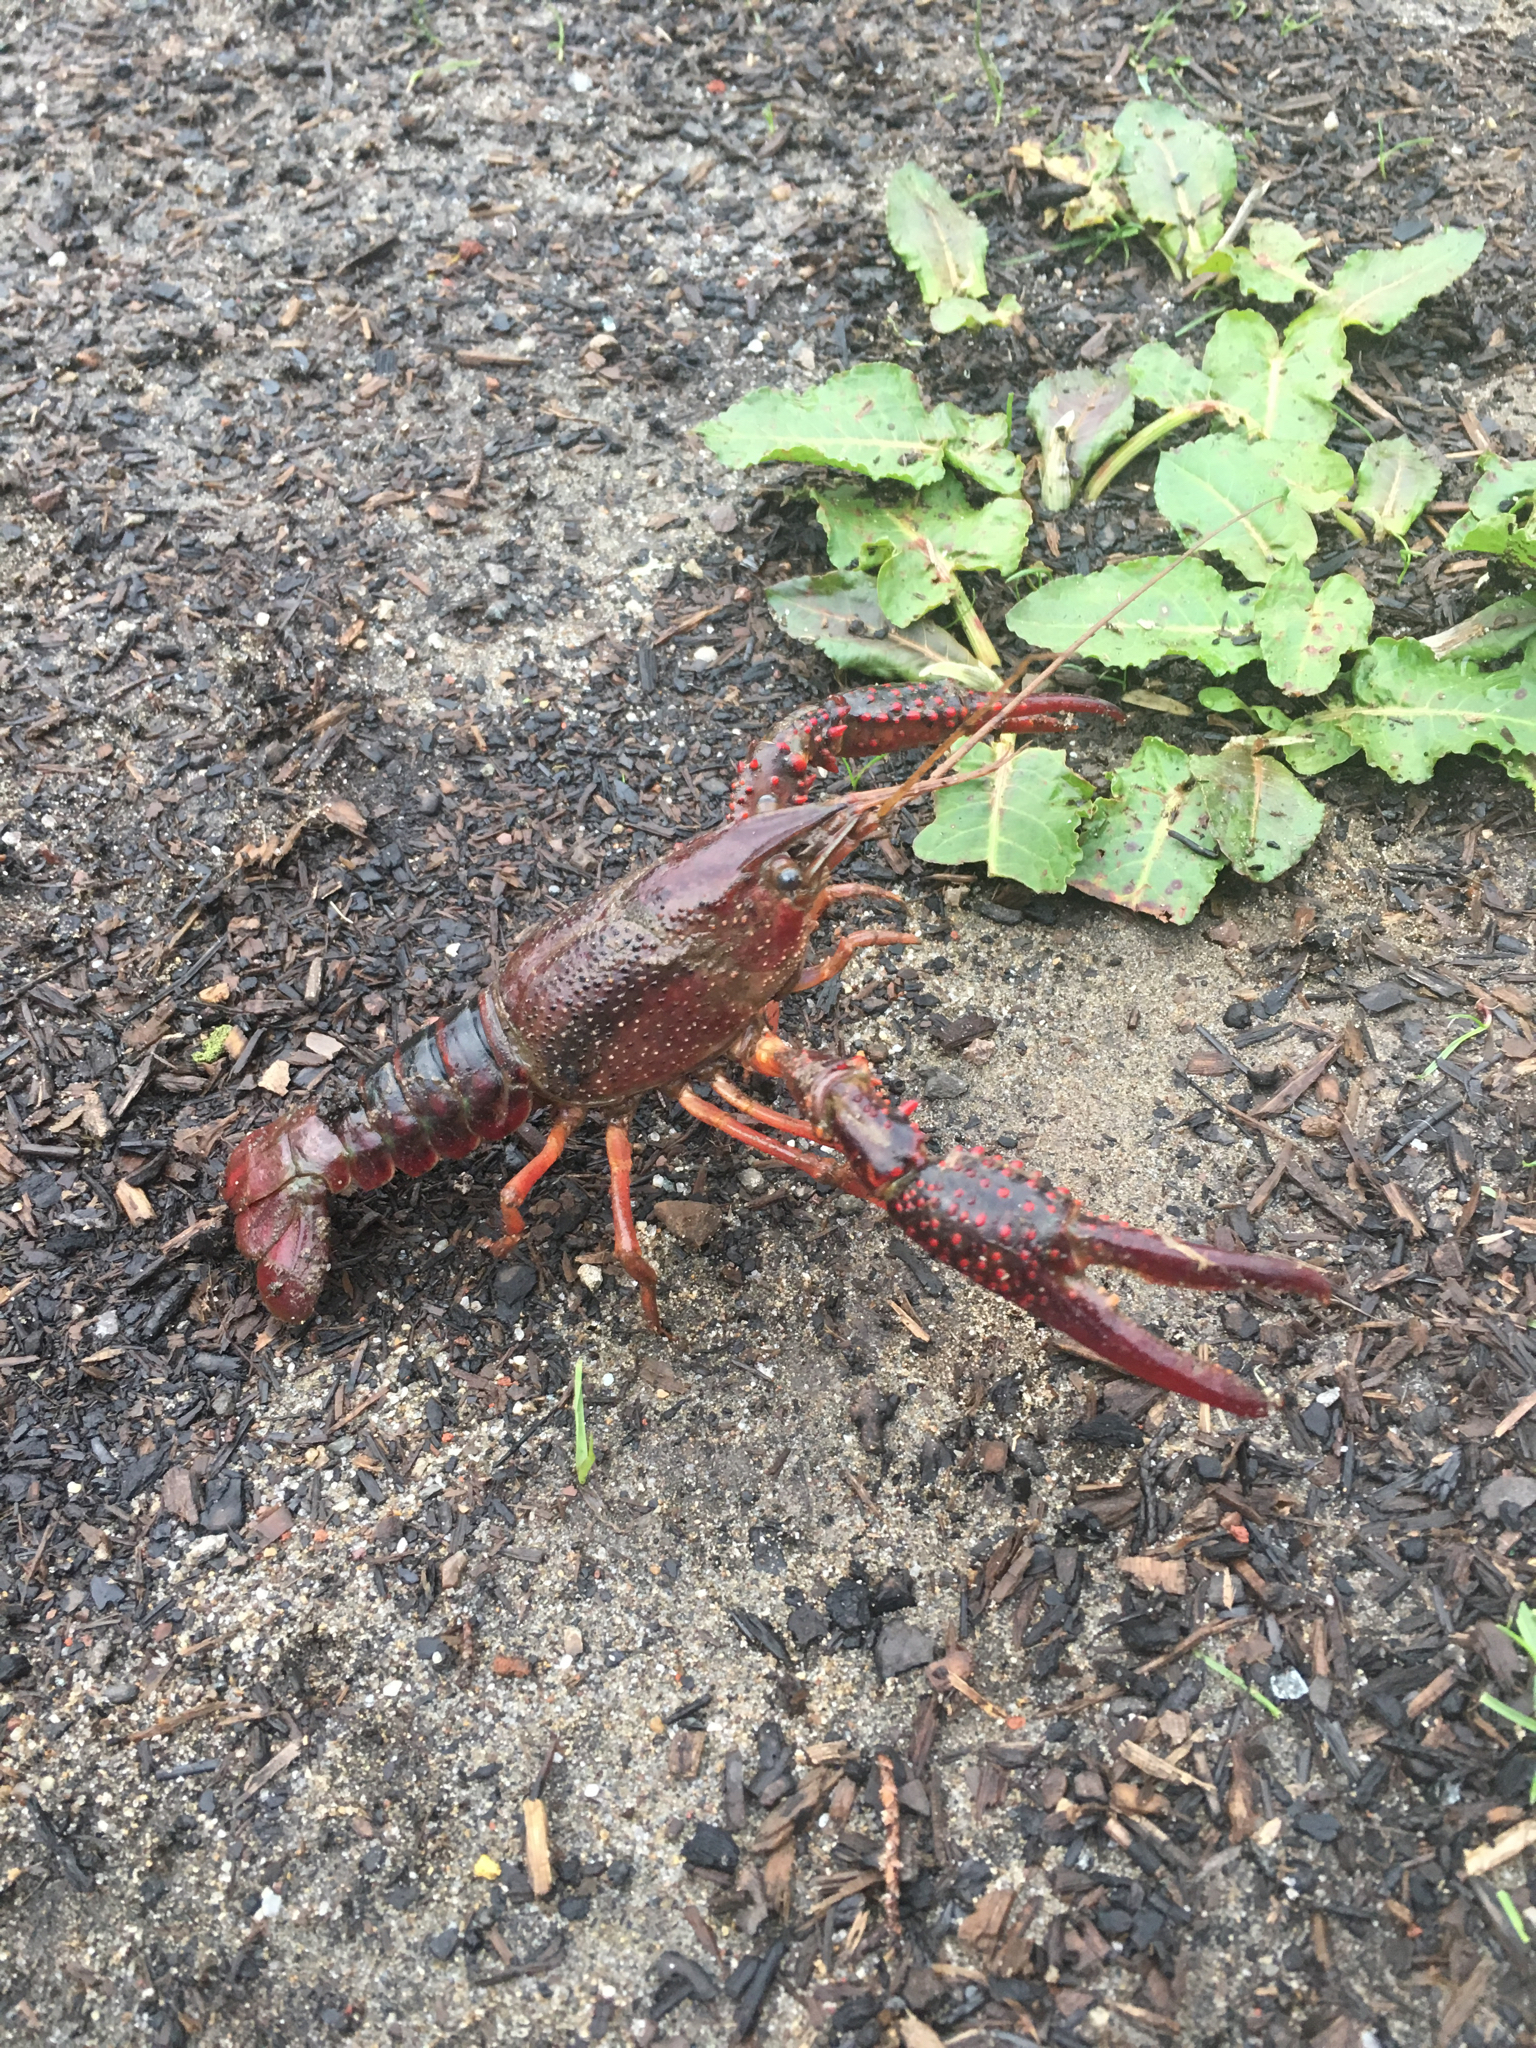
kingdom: Animalia
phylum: Arthropoda
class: Malacostraca
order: Decapoda
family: Cambaridae
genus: Procambarus
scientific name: Procambarus clarkii
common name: Red swamp crayfish
